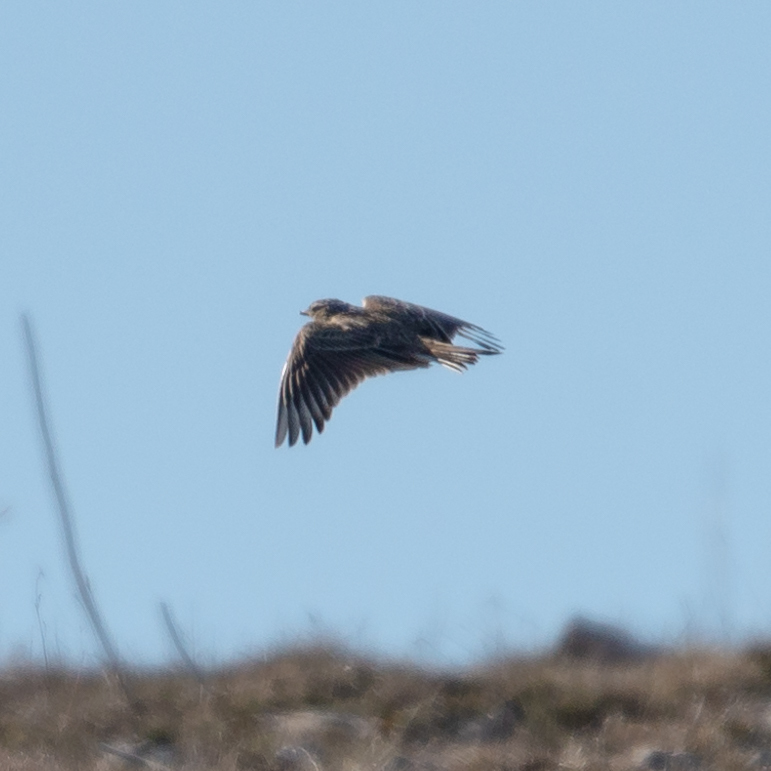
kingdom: Animalia
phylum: Chordata
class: Aves
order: Passeriformes
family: Alaudidae
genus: Alauda
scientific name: Alauda arvensis
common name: Eurasian skylark
